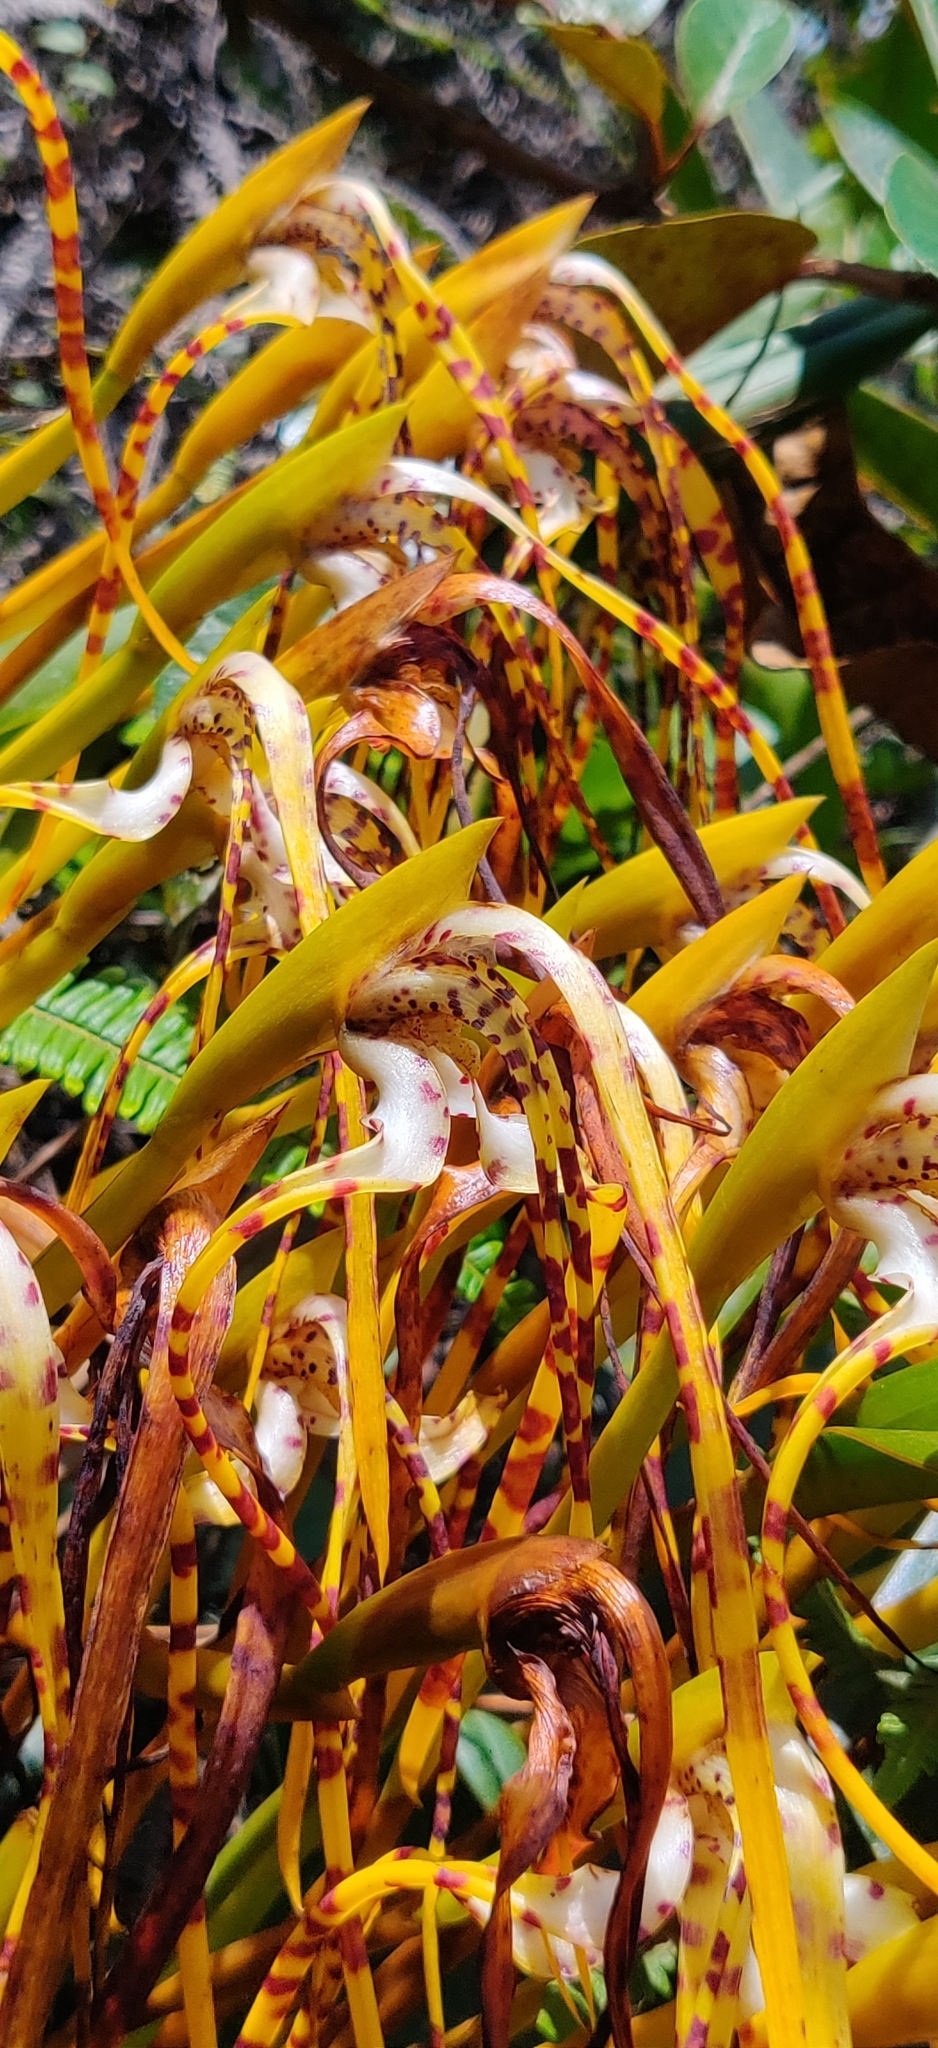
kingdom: Plantae
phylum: Tracheophyta
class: Liliopsida
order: Asparagales
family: Orchidaceae
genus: Maxillaria
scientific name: Maxillaria speciosa
